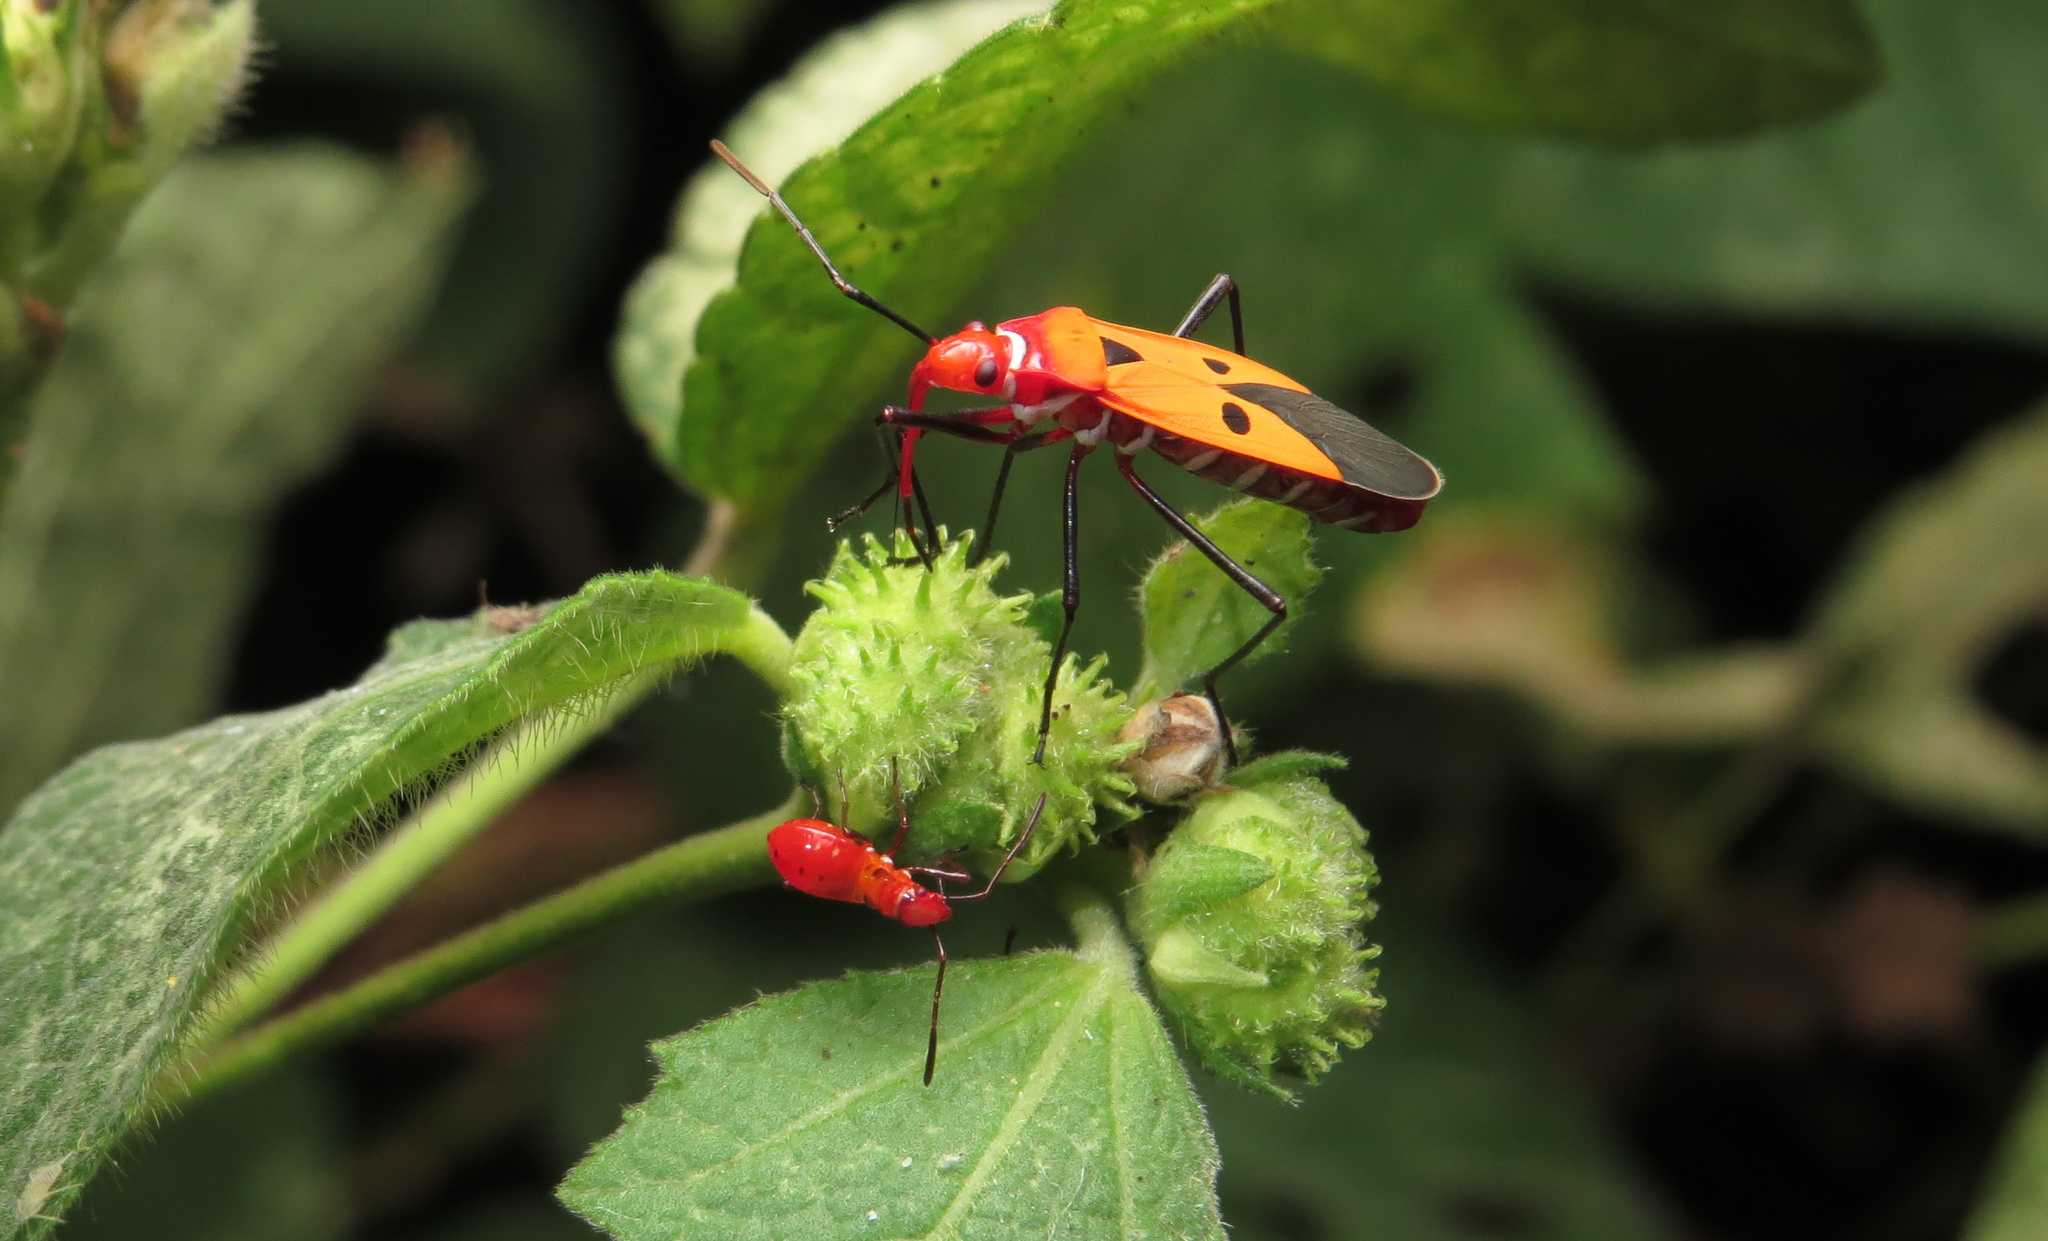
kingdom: Animalia
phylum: Arthropoda
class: Insecta
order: Hemiptera
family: Pyrrhocoridae
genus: Dysdercus
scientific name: Dysdercus cingulatus
